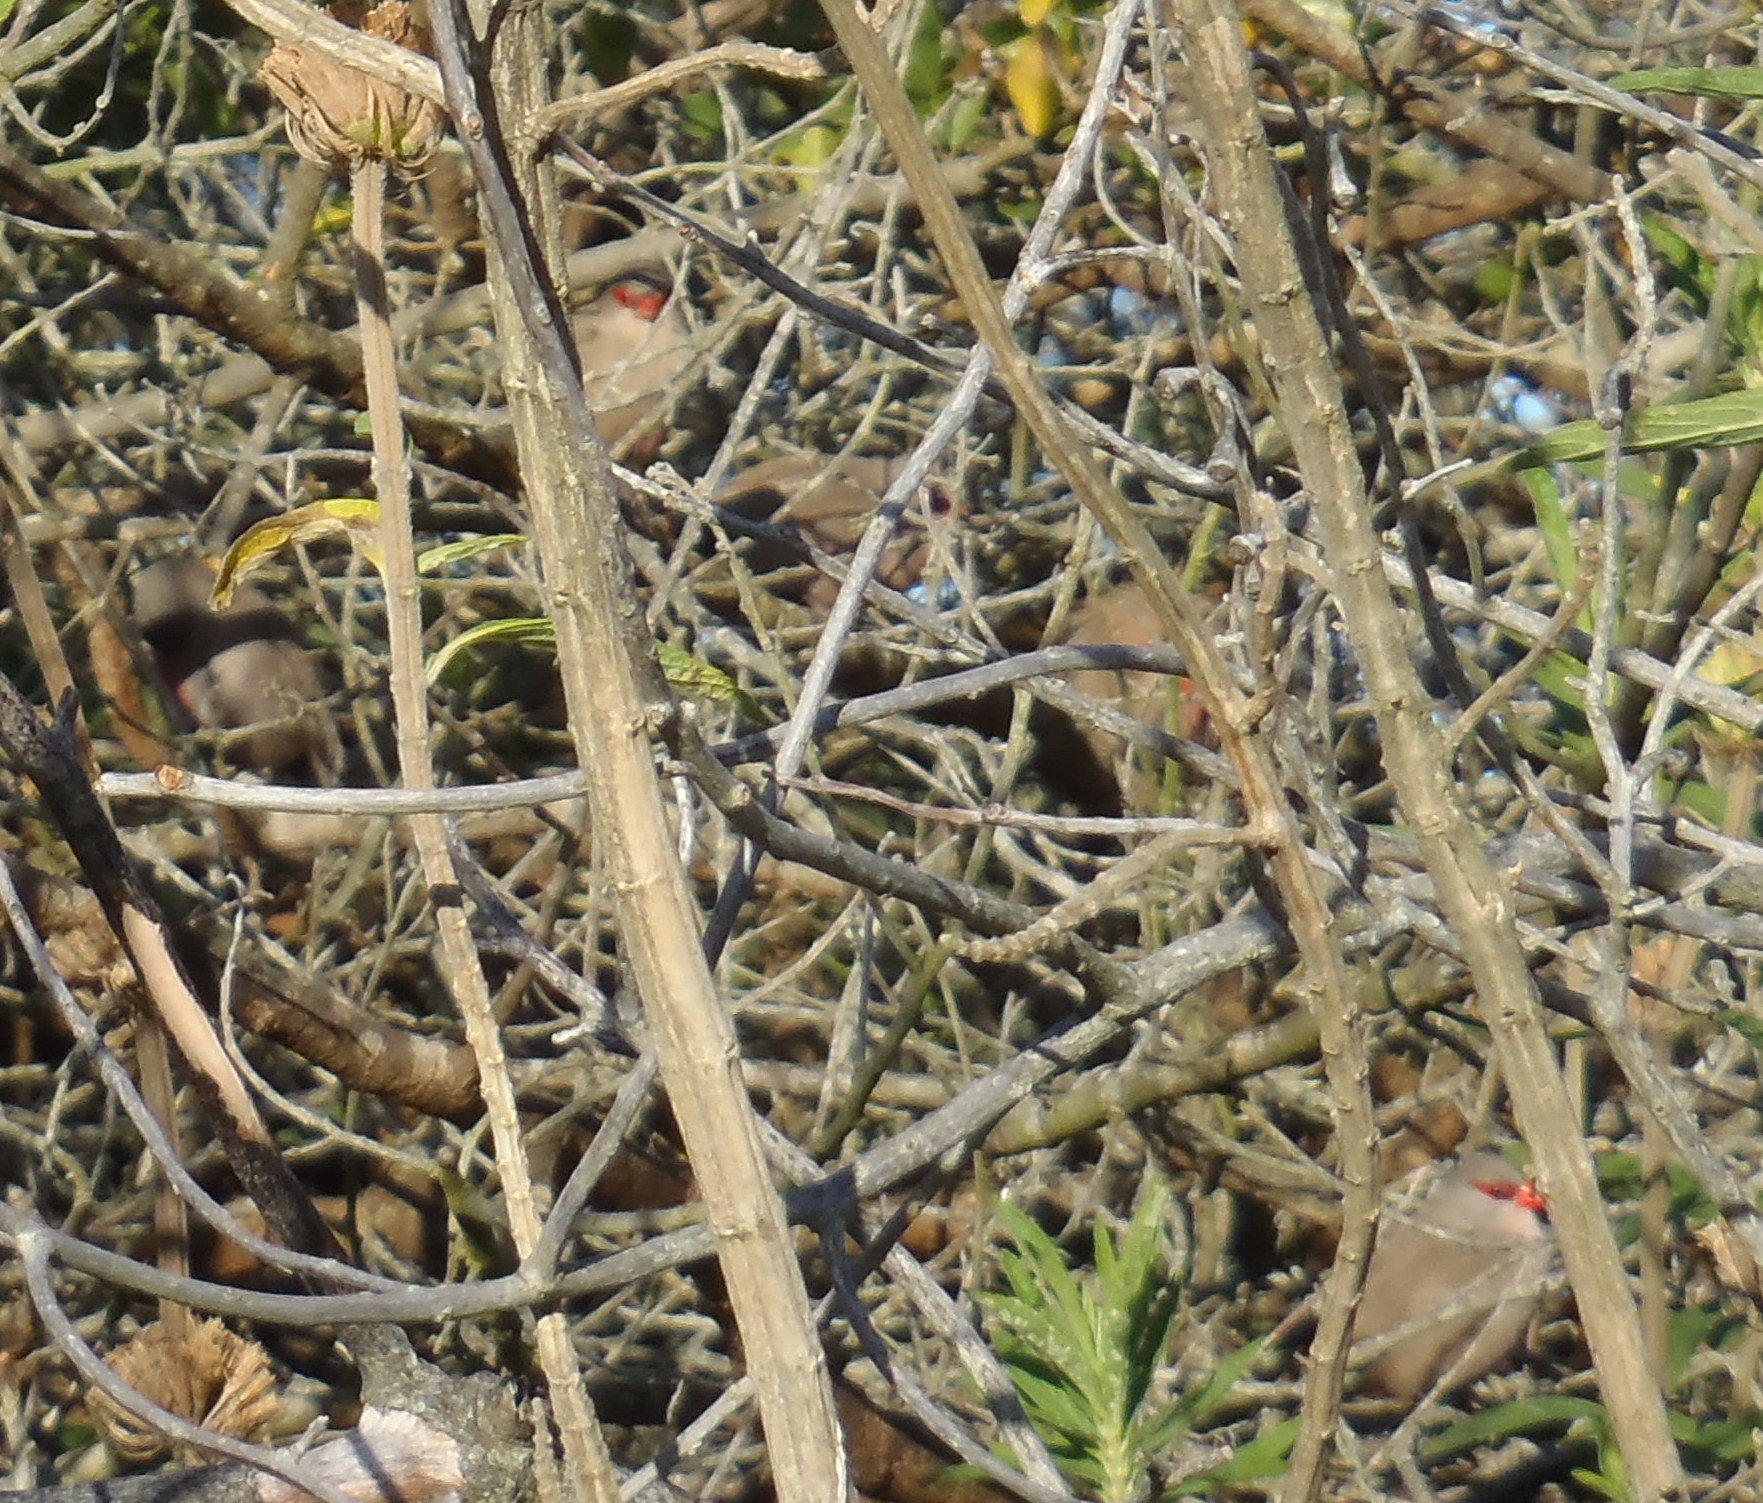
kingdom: Animalia
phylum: Chordata
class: Aves
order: Passeriformes
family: Estrildidae
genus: Estrilda
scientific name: Estrilda astrild
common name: Common waxbill
